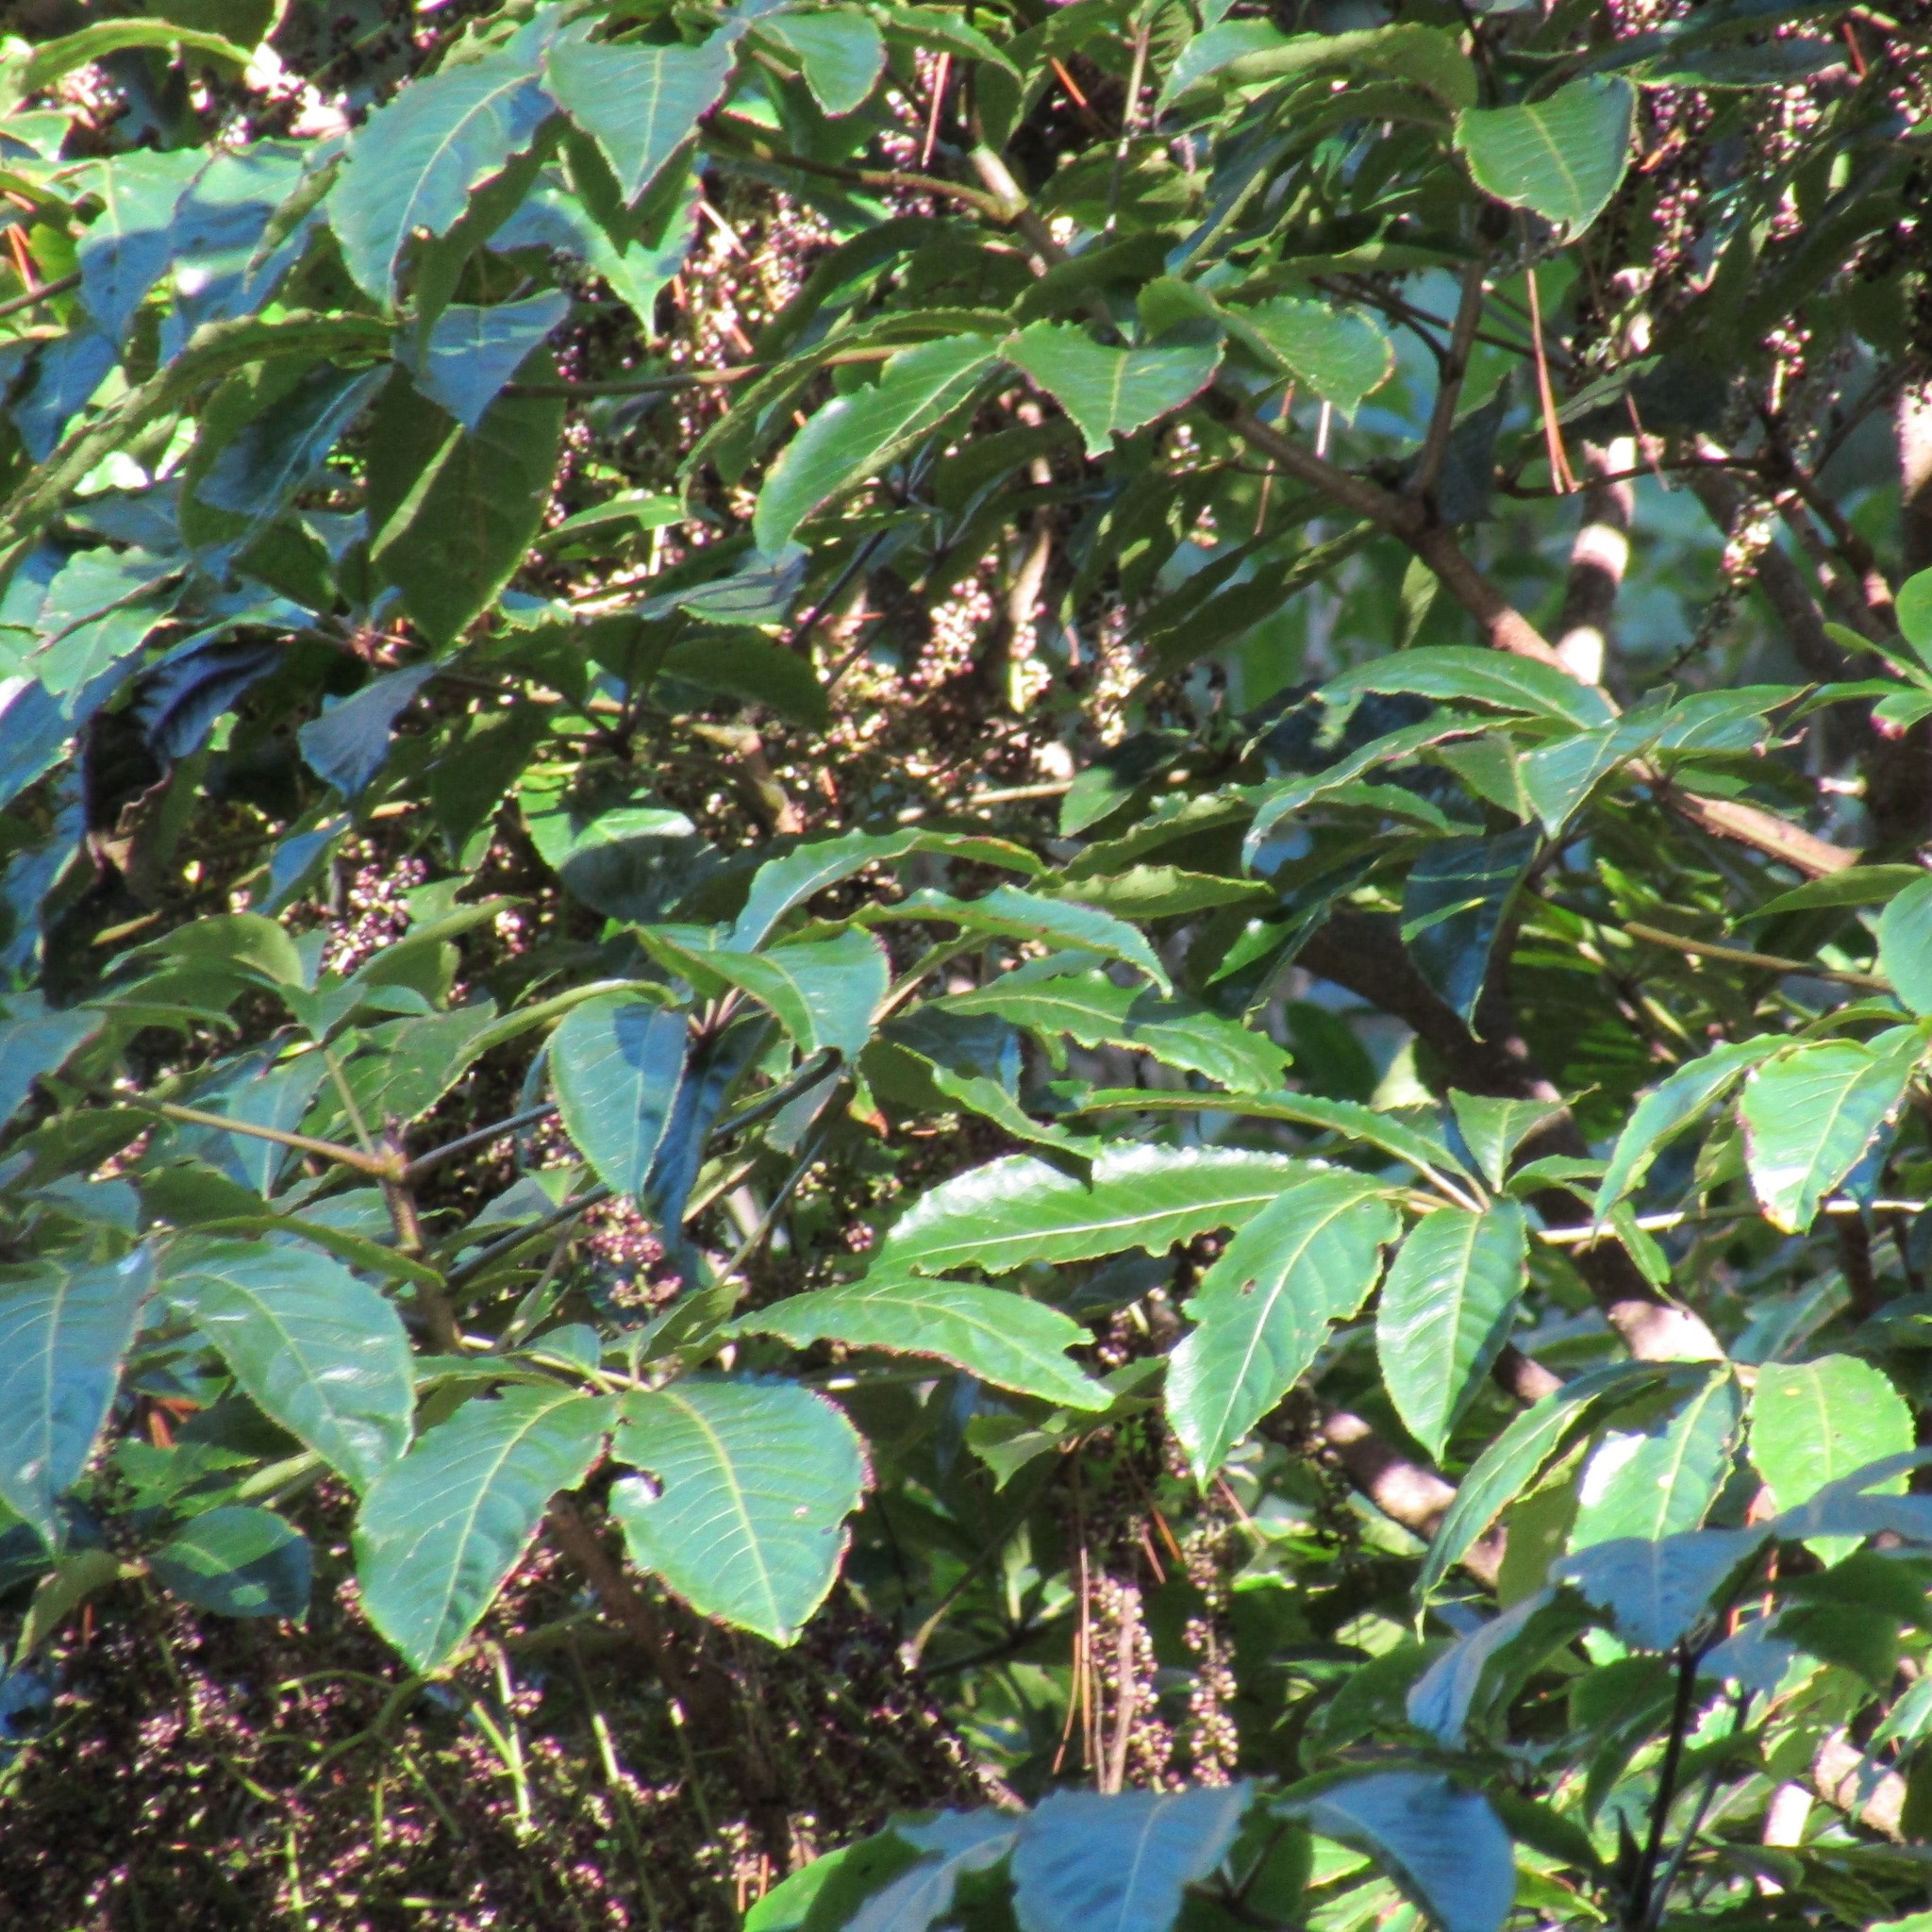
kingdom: Plantae
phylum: Tracheophyta
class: Magnoliopsida
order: Apiales
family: Araliaceae
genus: Schefflera
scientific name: Schefflera digitata
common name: Pate
